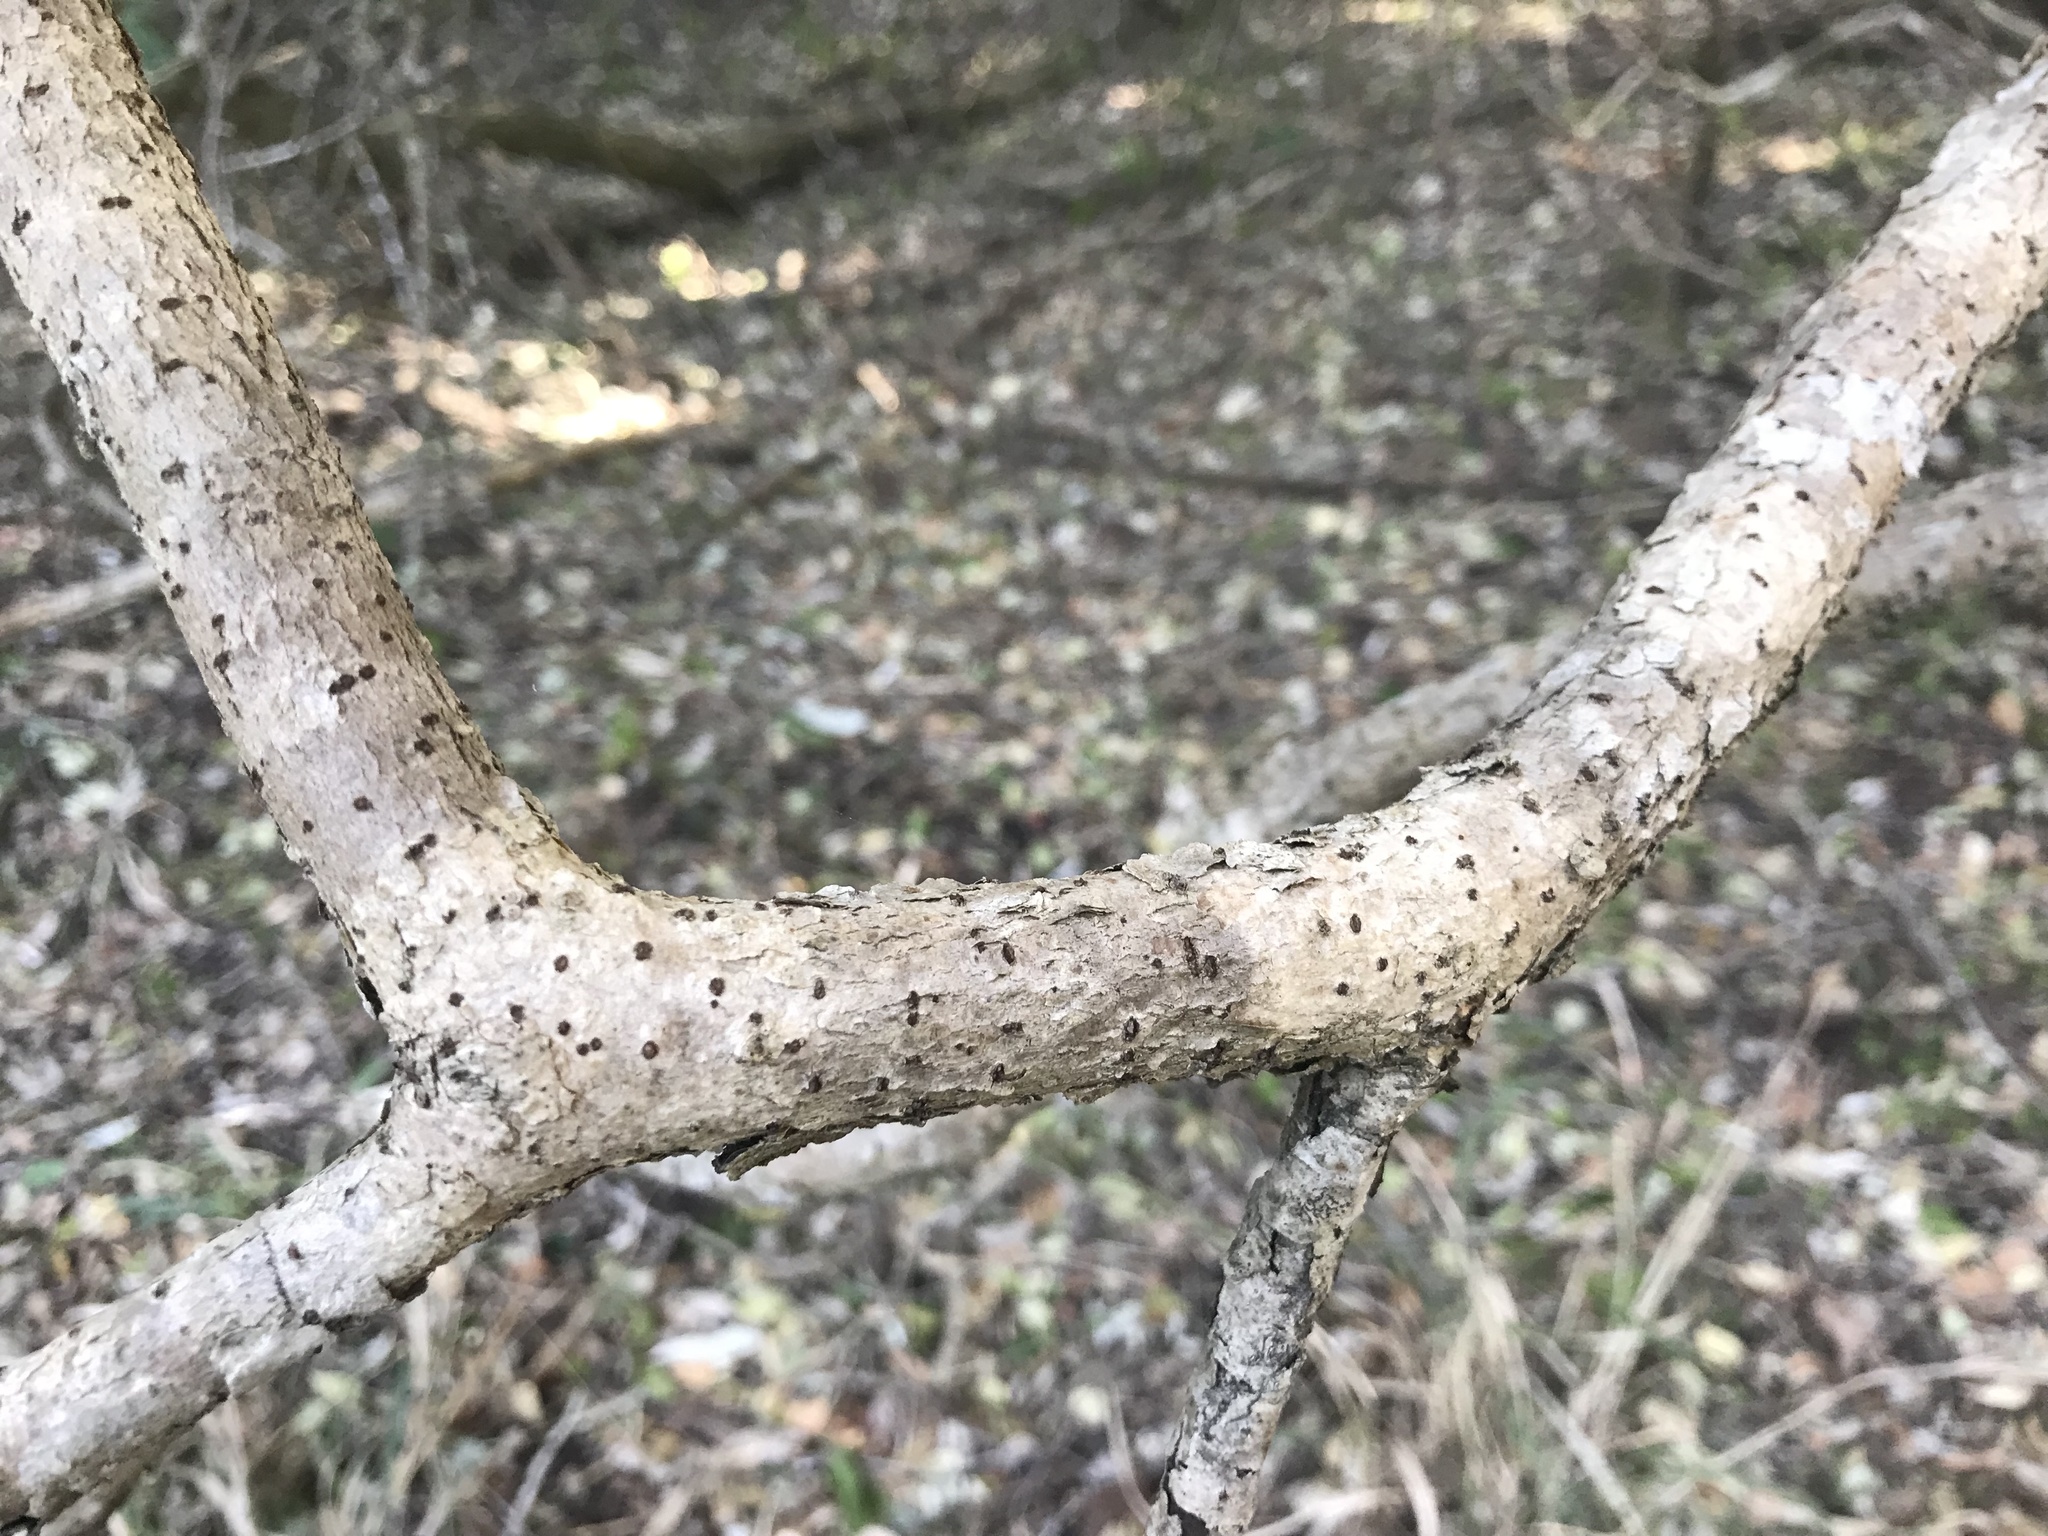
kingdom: Plantae
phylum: Tracheophyta
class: Magnoliopsida
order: Apiales
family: Pittosporaceae
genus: Pittosporum
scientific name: Pittosporum viridiflorum
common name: Cape cheesewood
